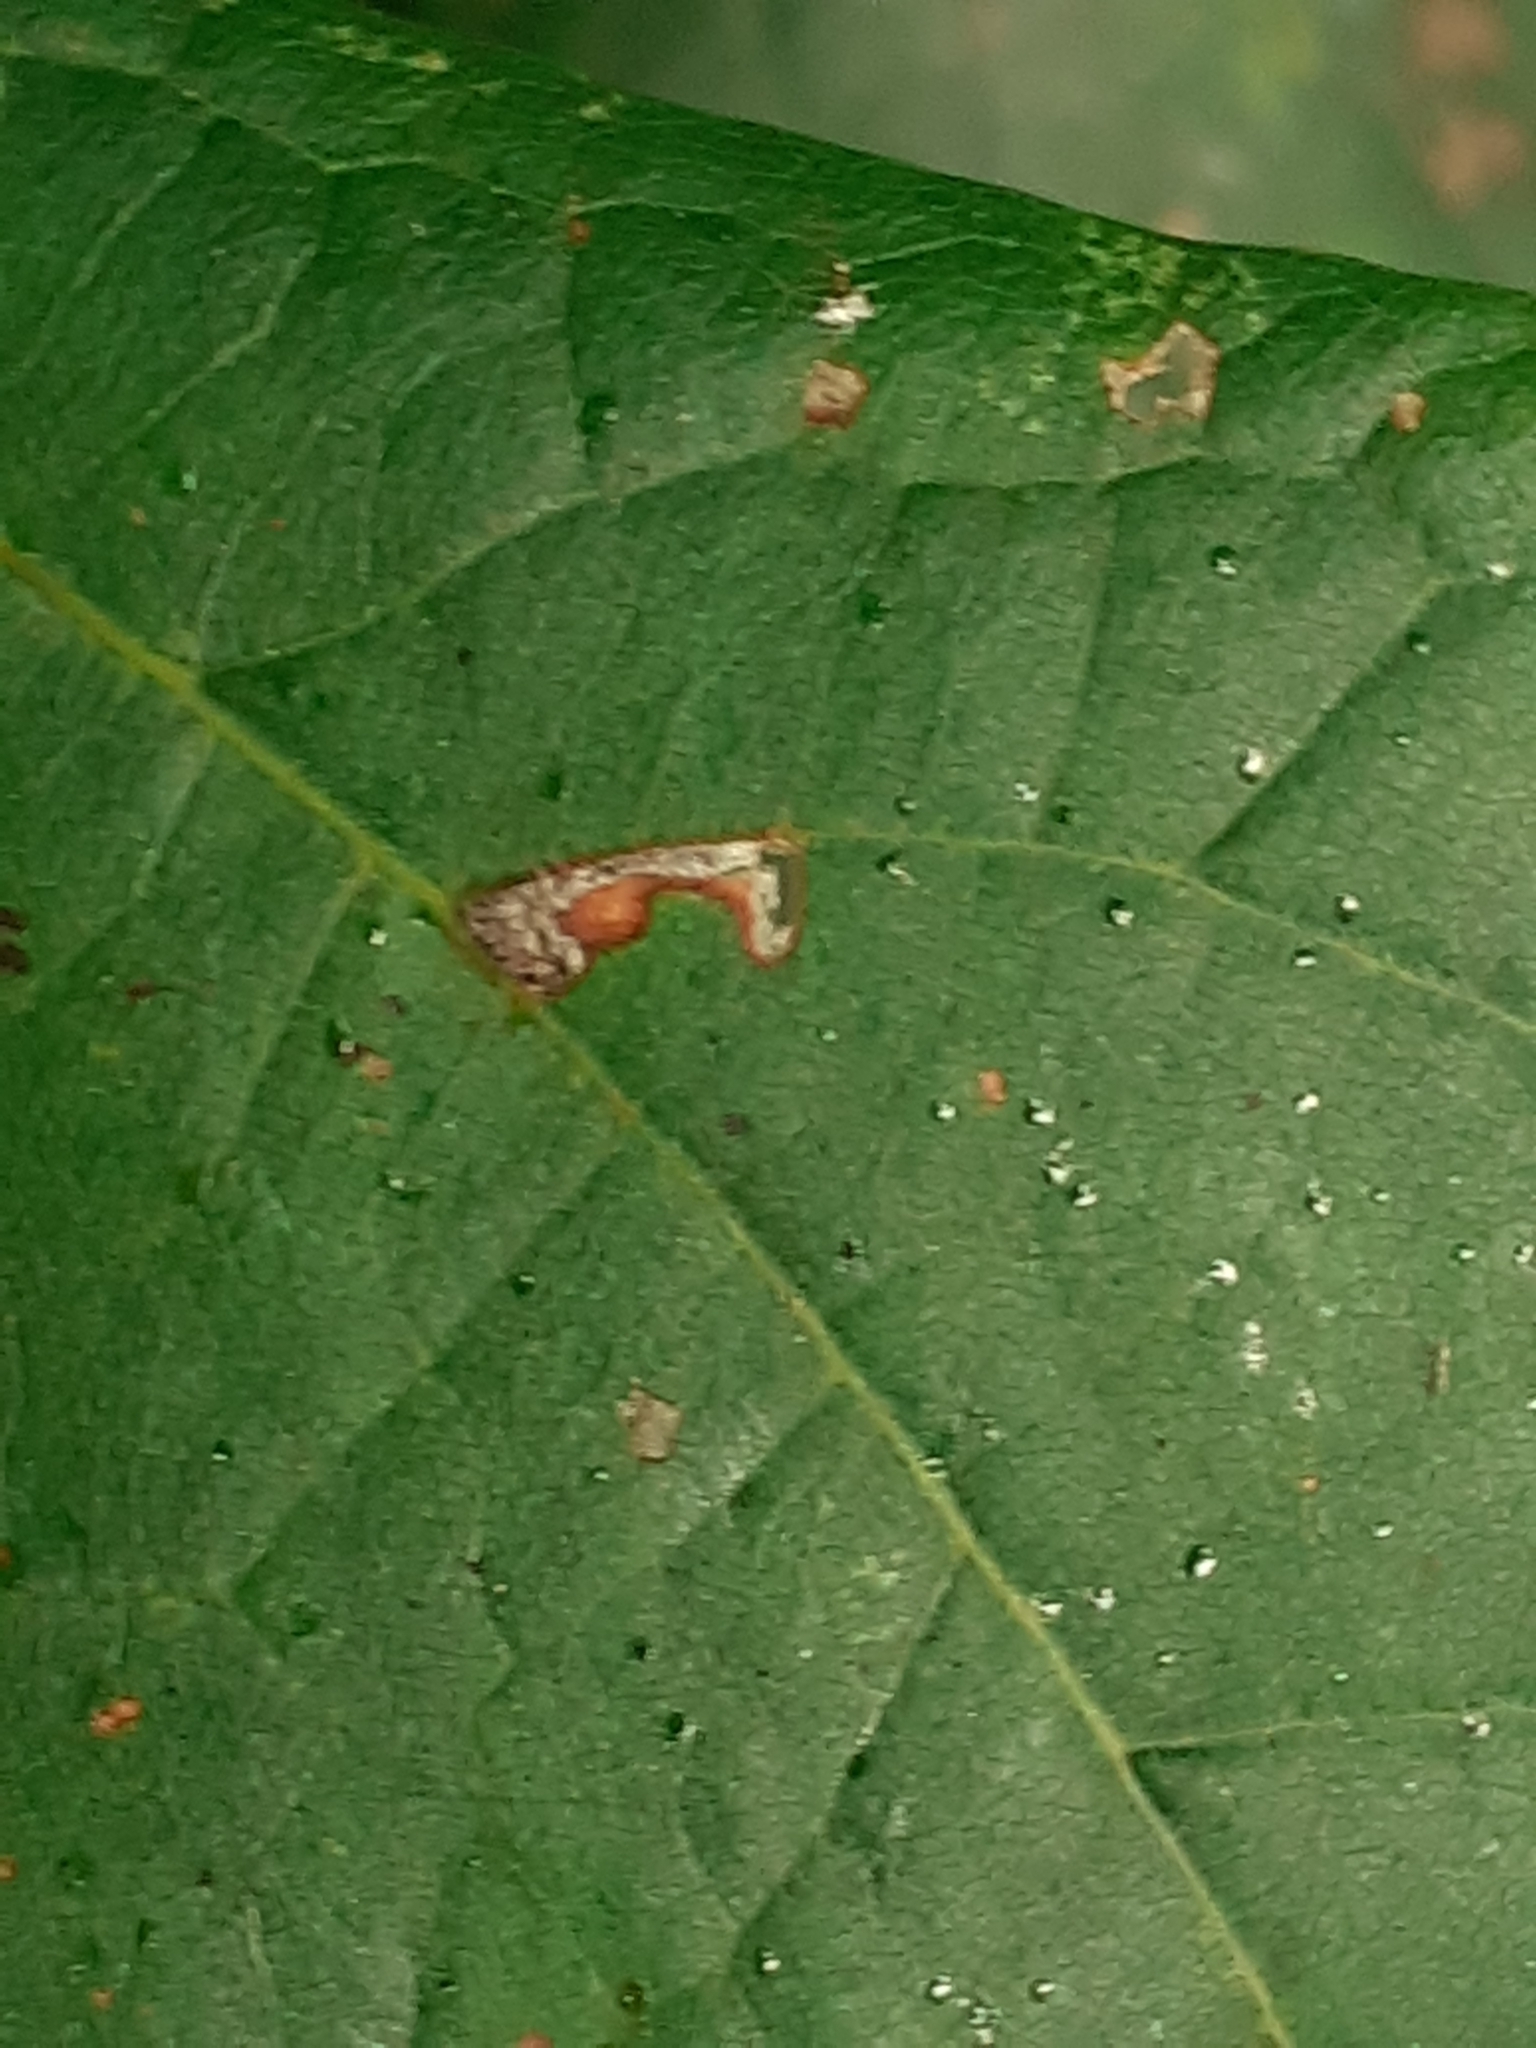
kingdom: Animalia
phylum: Arthropoda
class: Insecta
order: Lepidoptera
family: Bucculatricidae
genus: Bucculatrix
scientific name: Bucculatrix thoracella
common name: Lime bent-wing
